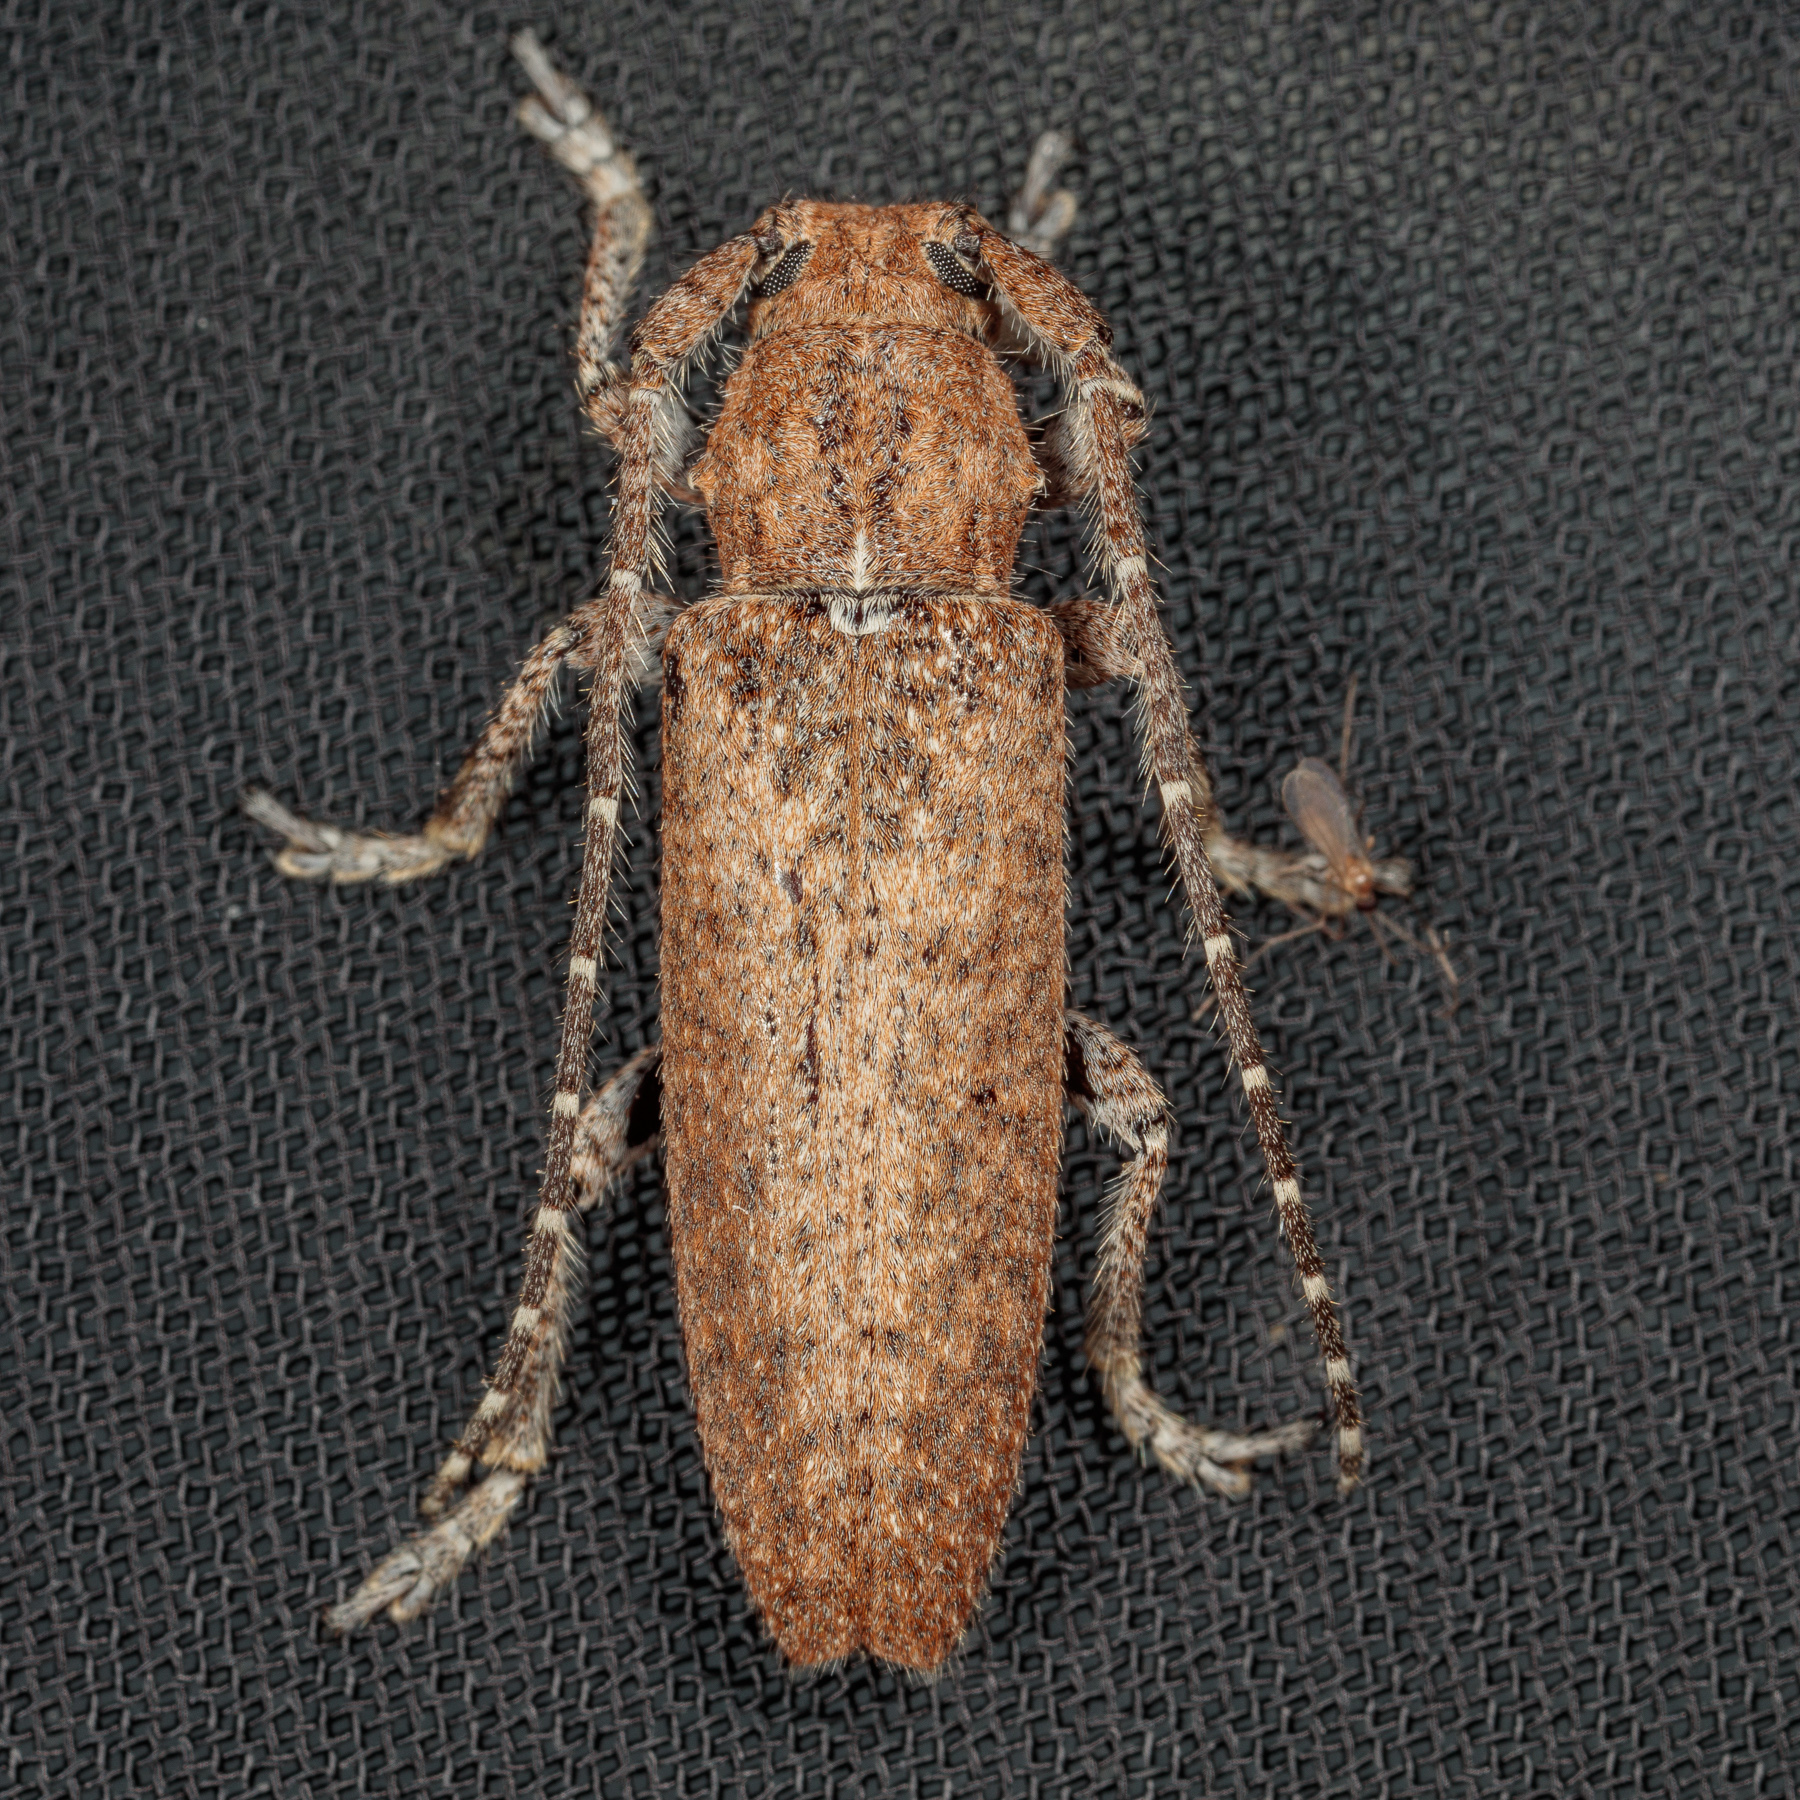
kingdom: Animalia
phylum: Arthropoda
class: Insecta
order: Coleoptera
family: Cerambycidae
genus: Ataxia
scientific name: Ataxia crypta
